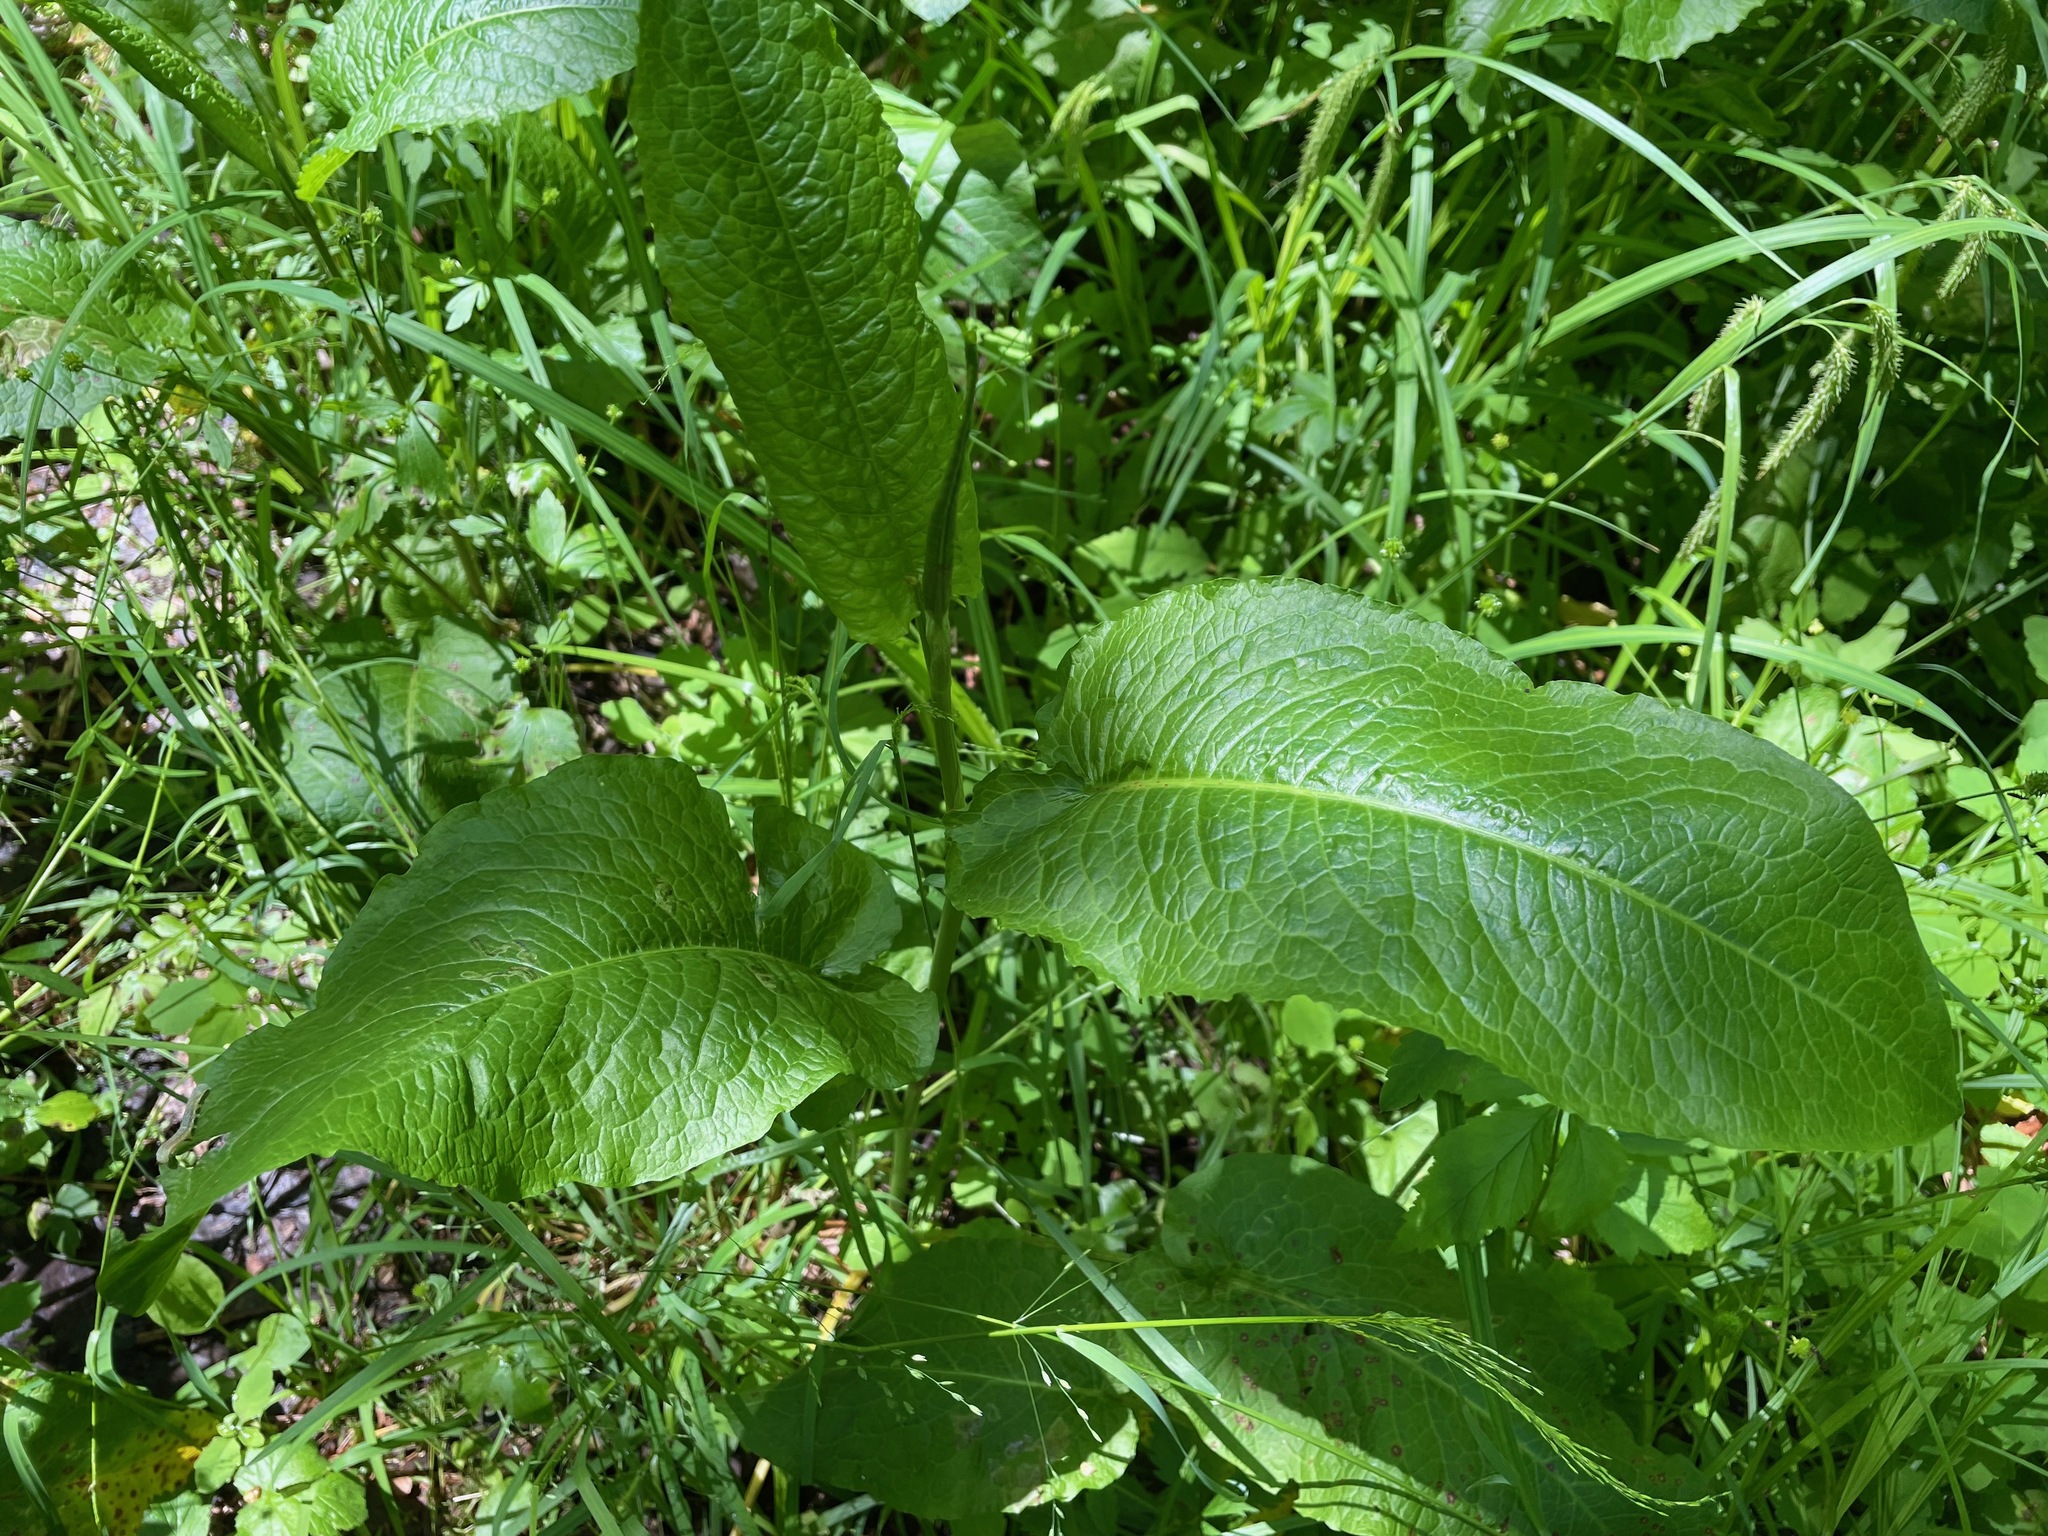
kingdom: Plantae
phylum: Tracheophyta
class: Magnoliopsida
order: Caryophyllales
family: Polygonaceae
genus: Rumex
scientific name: Rumex obtusifolius
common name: Bitter dock
